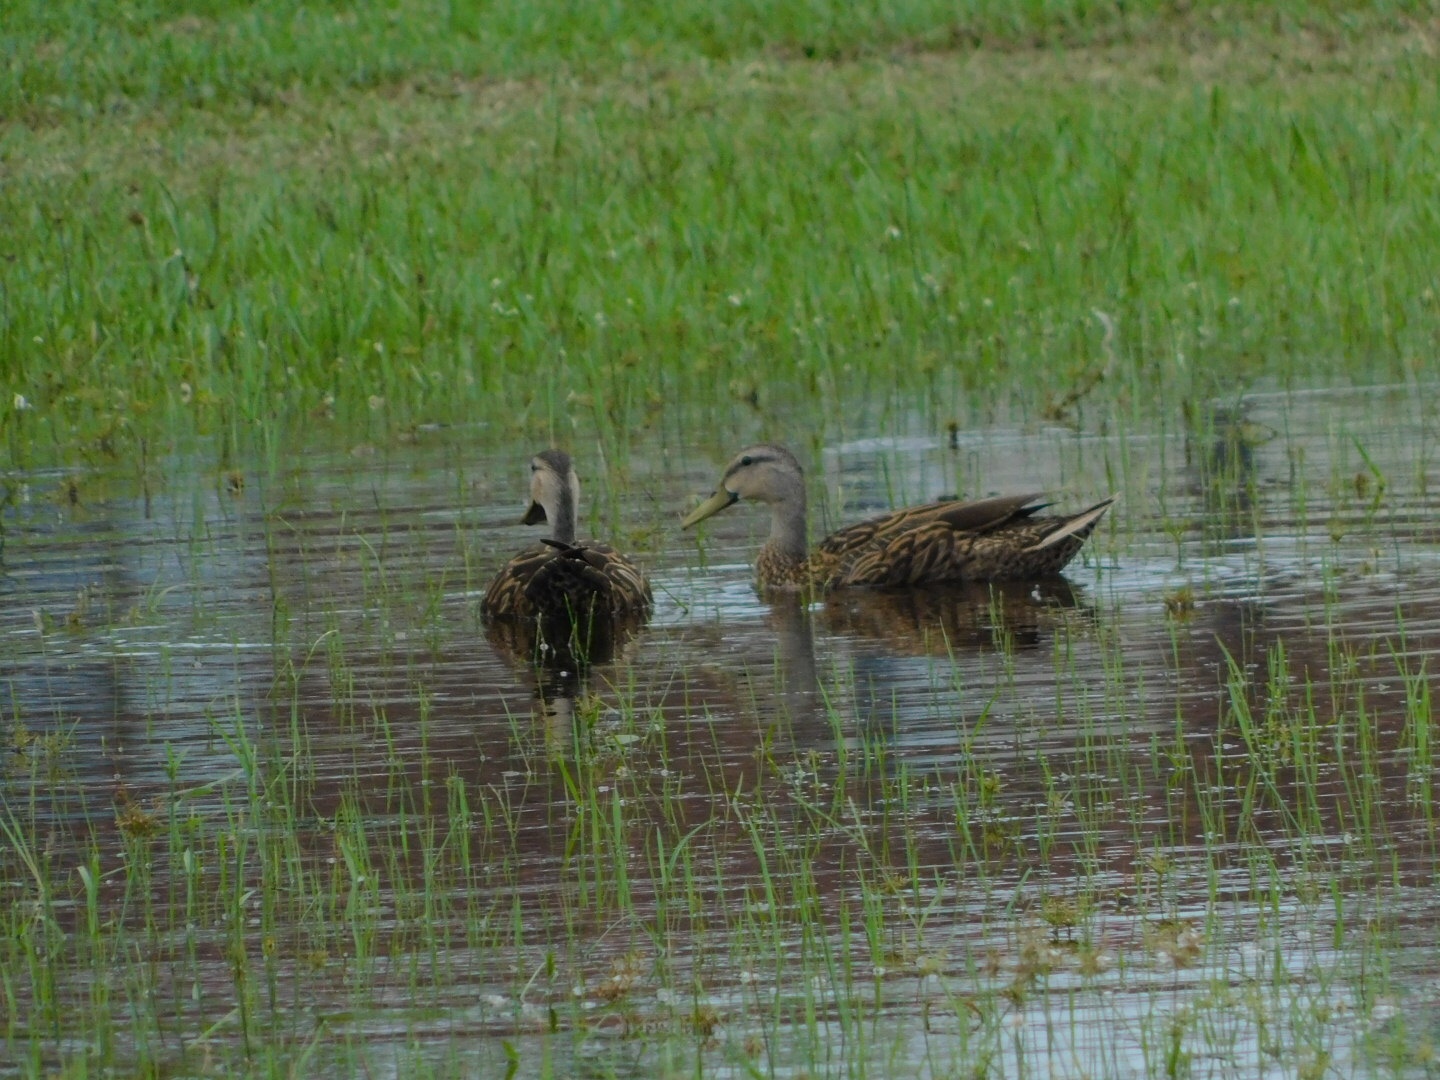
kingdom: Animalia
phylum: Chordata
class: Aves
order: Anseriformes
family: Anatidae
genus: Anas
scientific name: Anas
